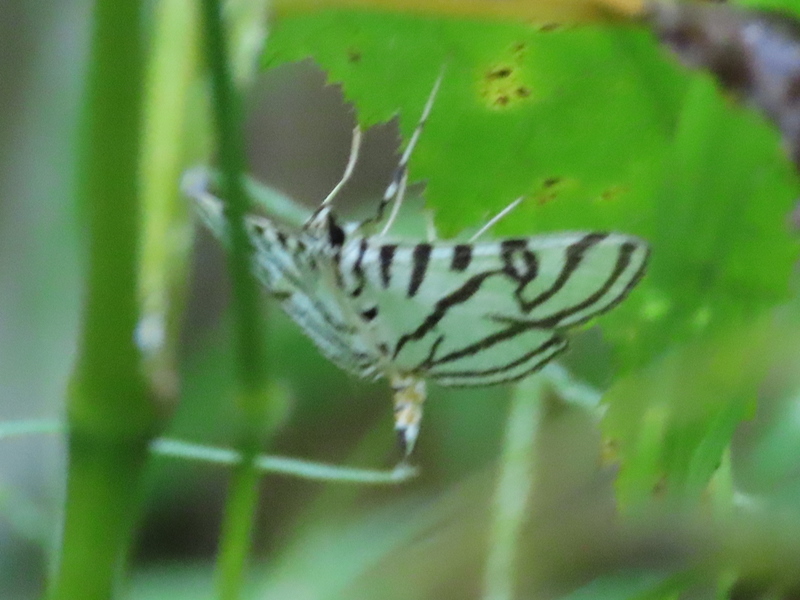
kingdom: Animalia
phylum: Arthropoda
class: Insecta
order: Lepidoptera
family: Crambidae
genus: Conchylodes
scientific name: Conchylodes ovulalis
